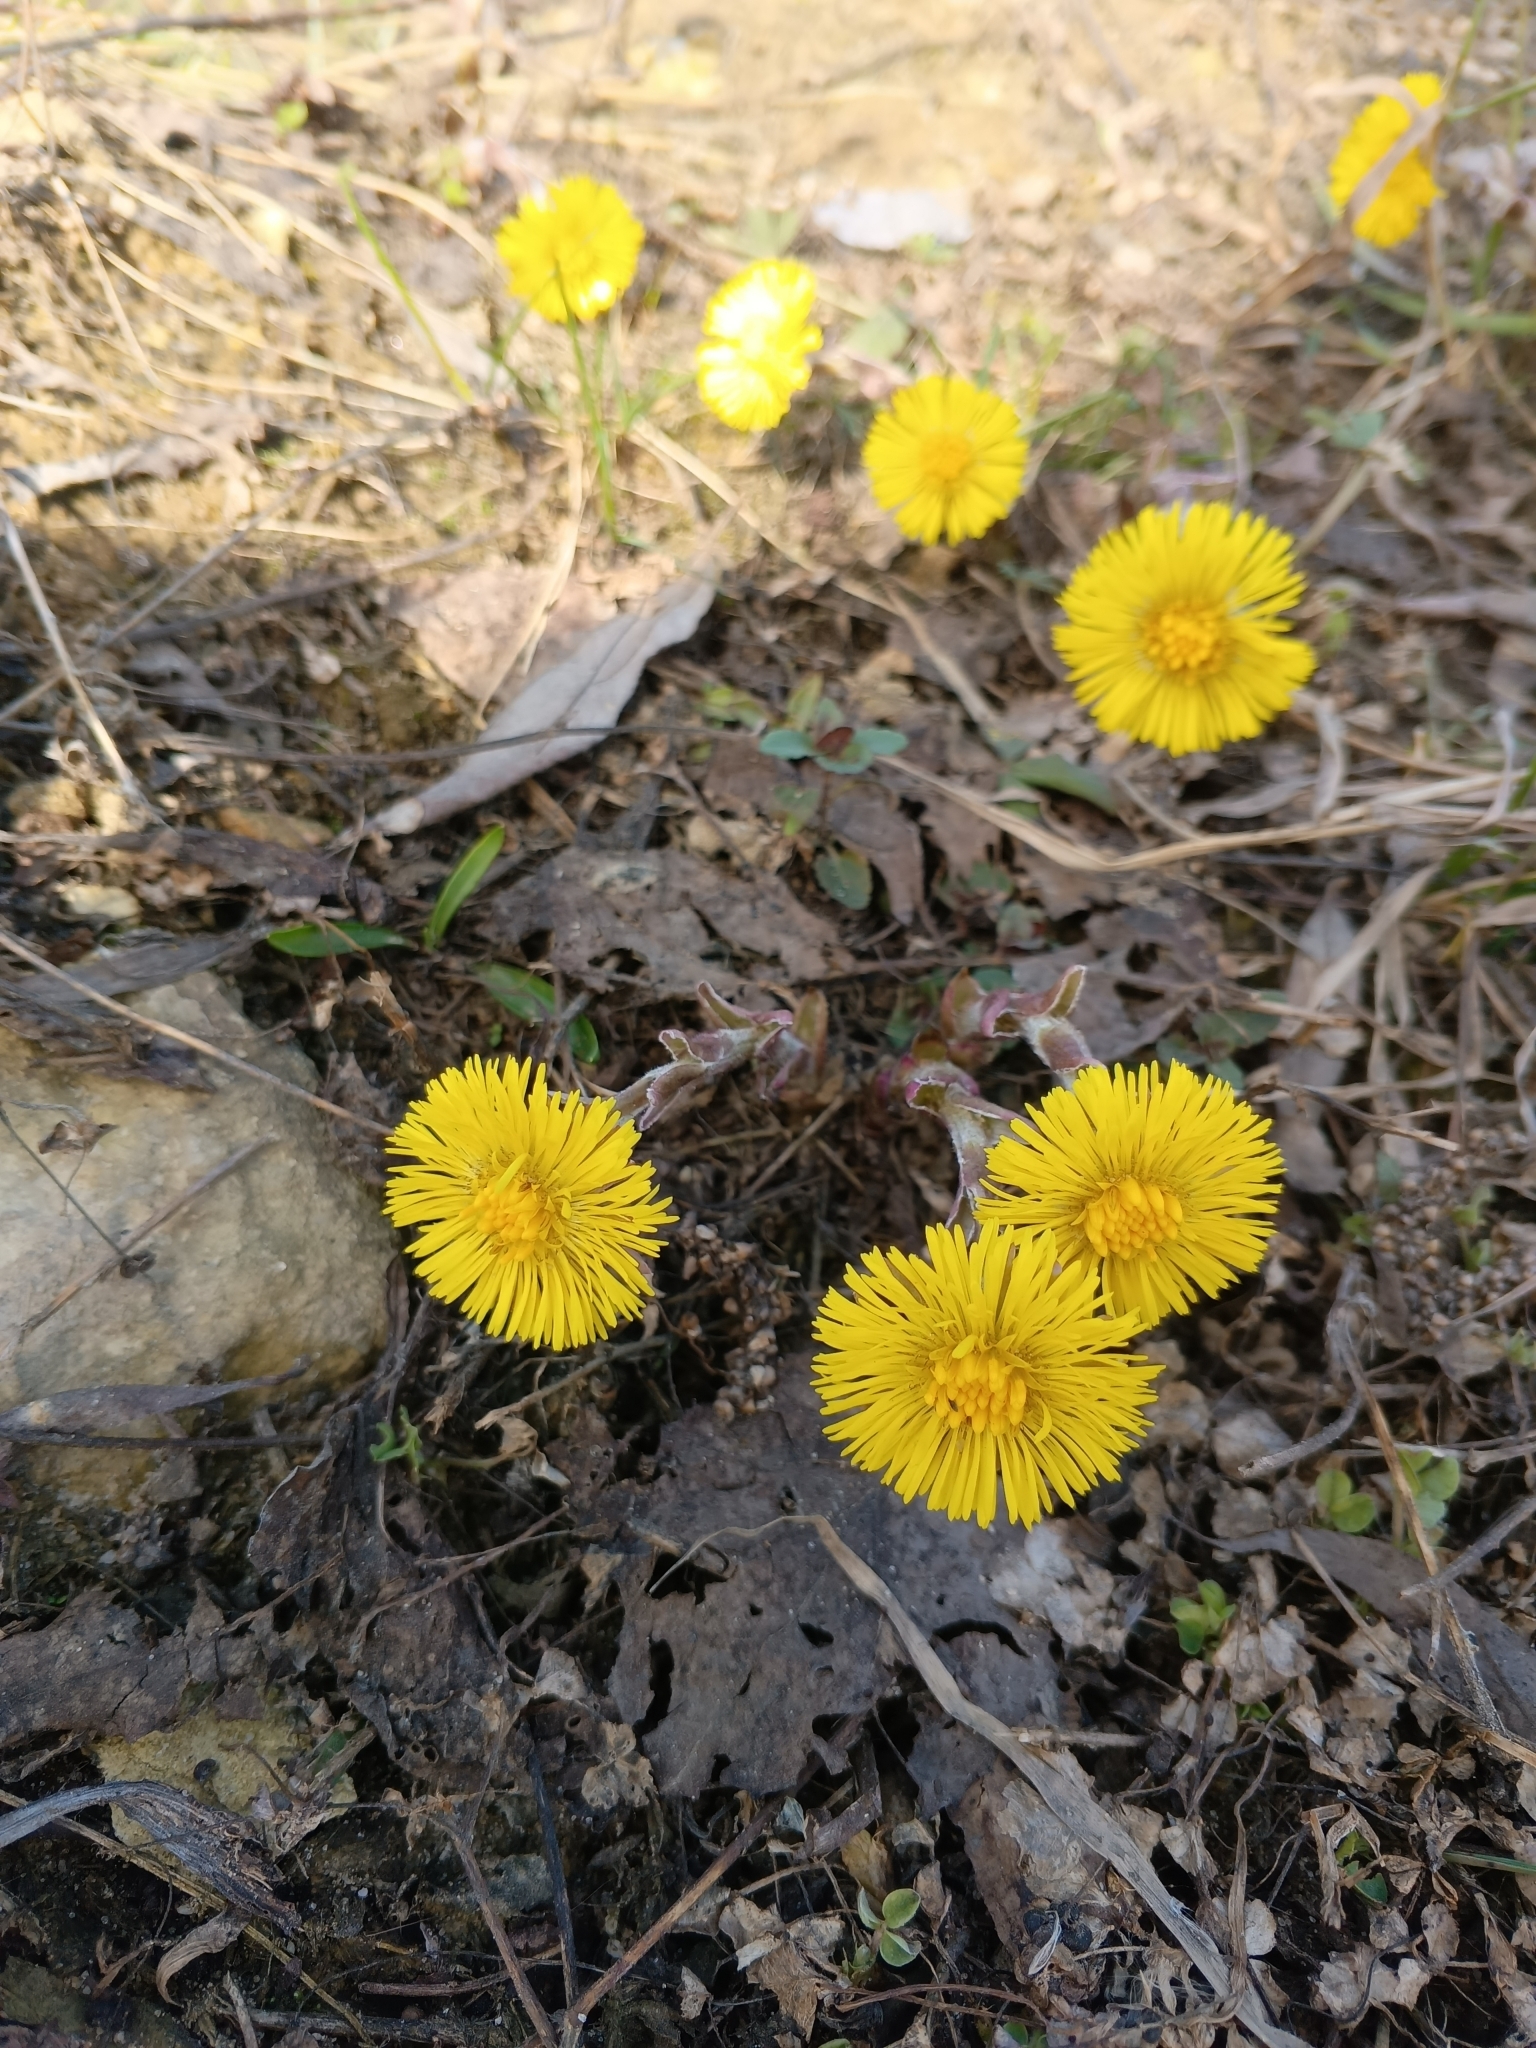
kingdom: Plantae
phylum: Tracheophyta
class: Magnoliopsida
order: Asterales
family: Asteraceae
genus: Tussilago
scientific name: Tussilago farfara
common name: Coltsfoot
